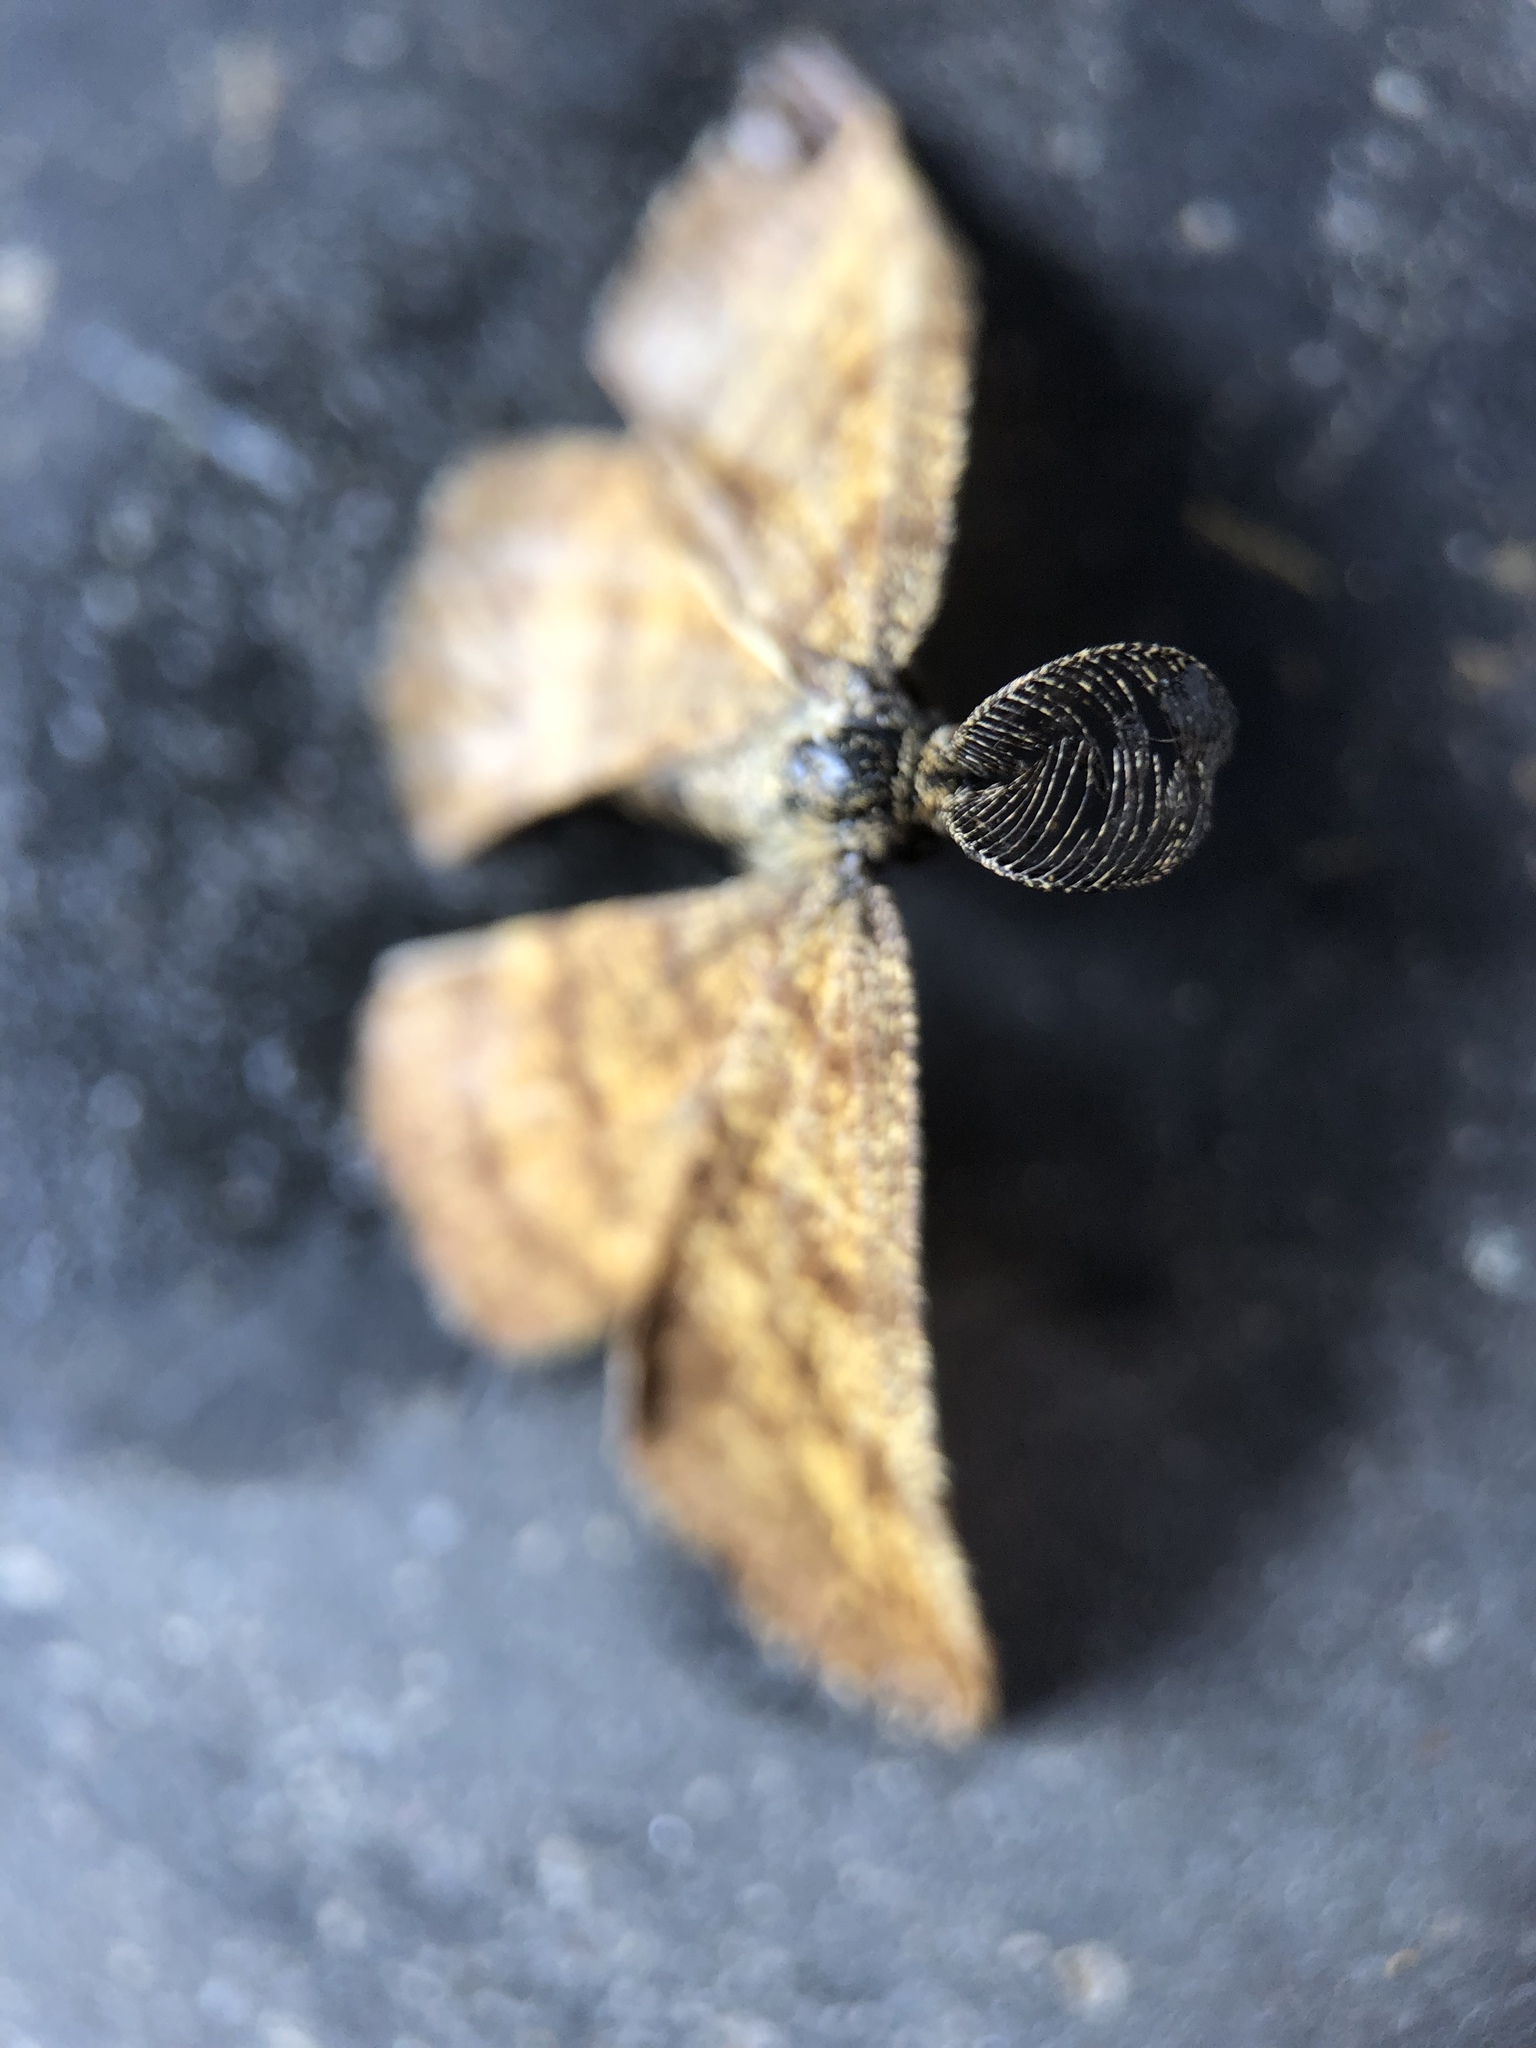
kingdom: Animalia
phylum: Arthropoda
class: Insecta
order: Lepidoptera
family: Geometridae
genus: Ematurga
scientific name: Ematurga atomaria
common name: Common heath
